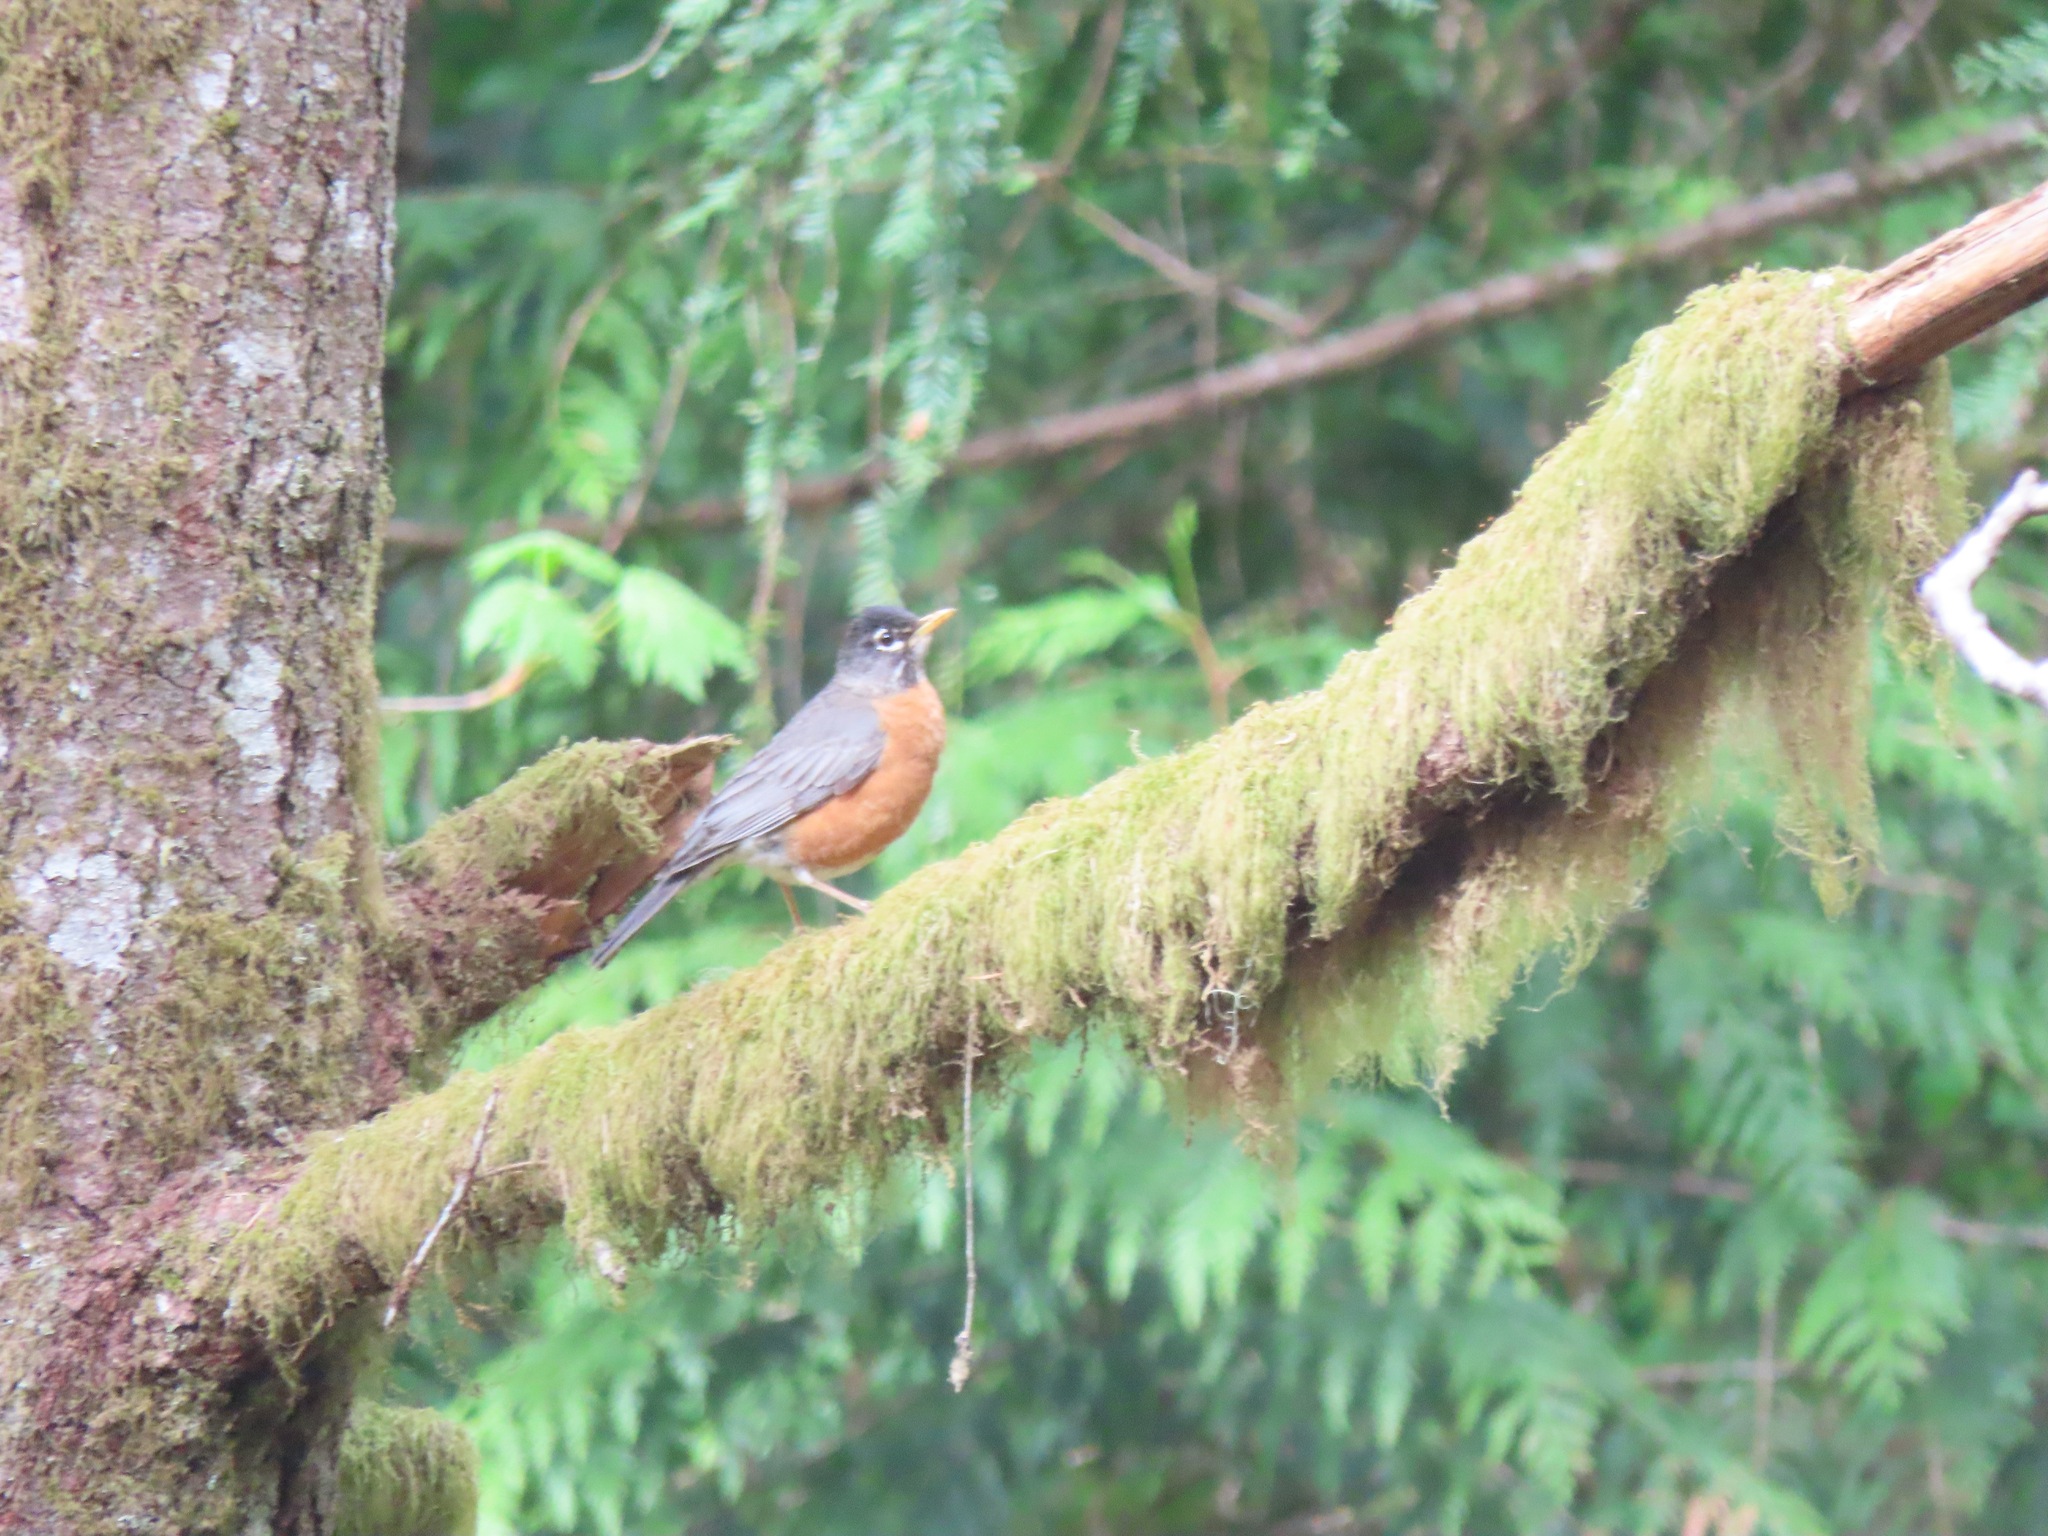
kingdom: Animalia
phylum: Chordata
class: Aves
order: Passeriformes
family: Turdidae
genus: Turdus
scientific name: Turdus migratorius
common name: American robin
